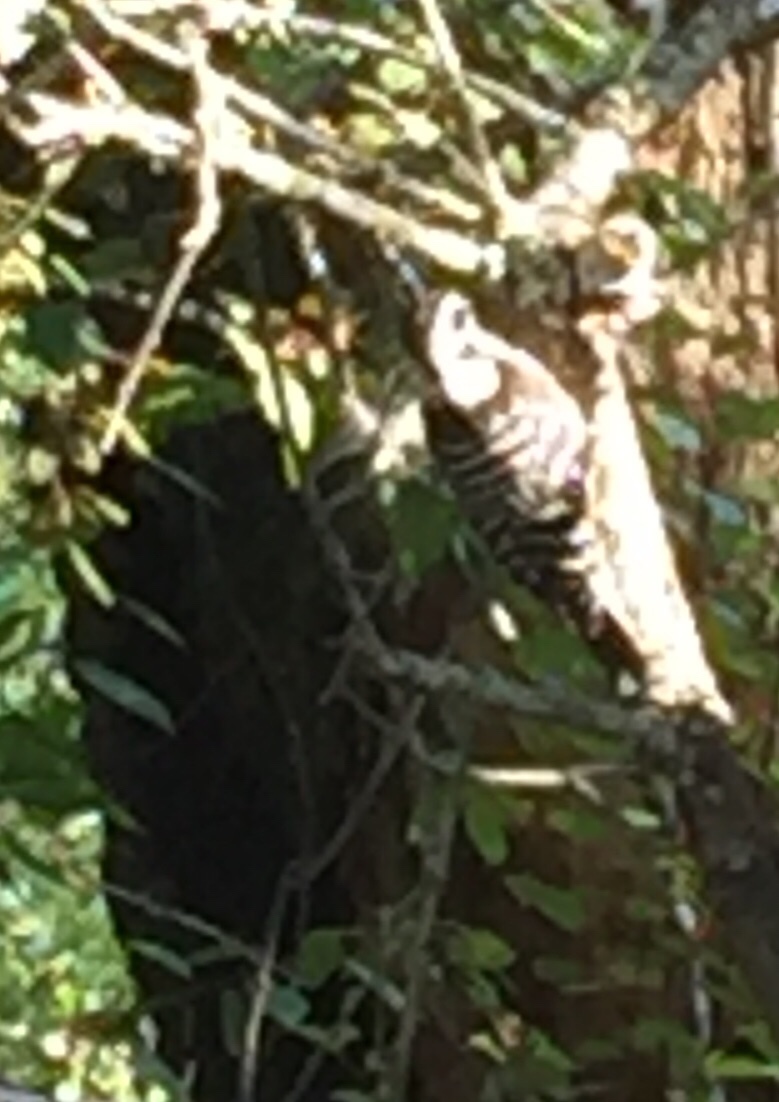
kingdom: Animalia
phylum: Chordata
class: Aves
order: Piciformes
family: Picidae
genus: Dryobates
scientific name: Dryobates nuttallii
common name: Nuttall's woodpecker
